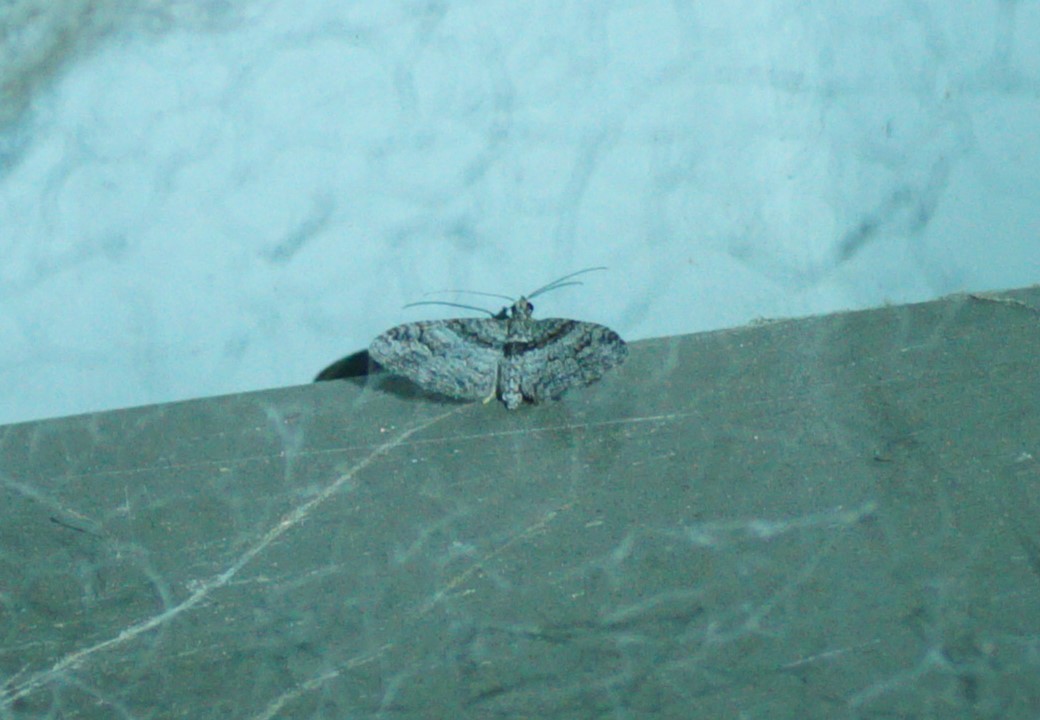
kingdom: Animalia
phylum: Arthropoda
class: Insecta
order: Lepidoptera
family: Geometridae
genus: Phrissogonus
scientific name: Phrissogonus laticostata
